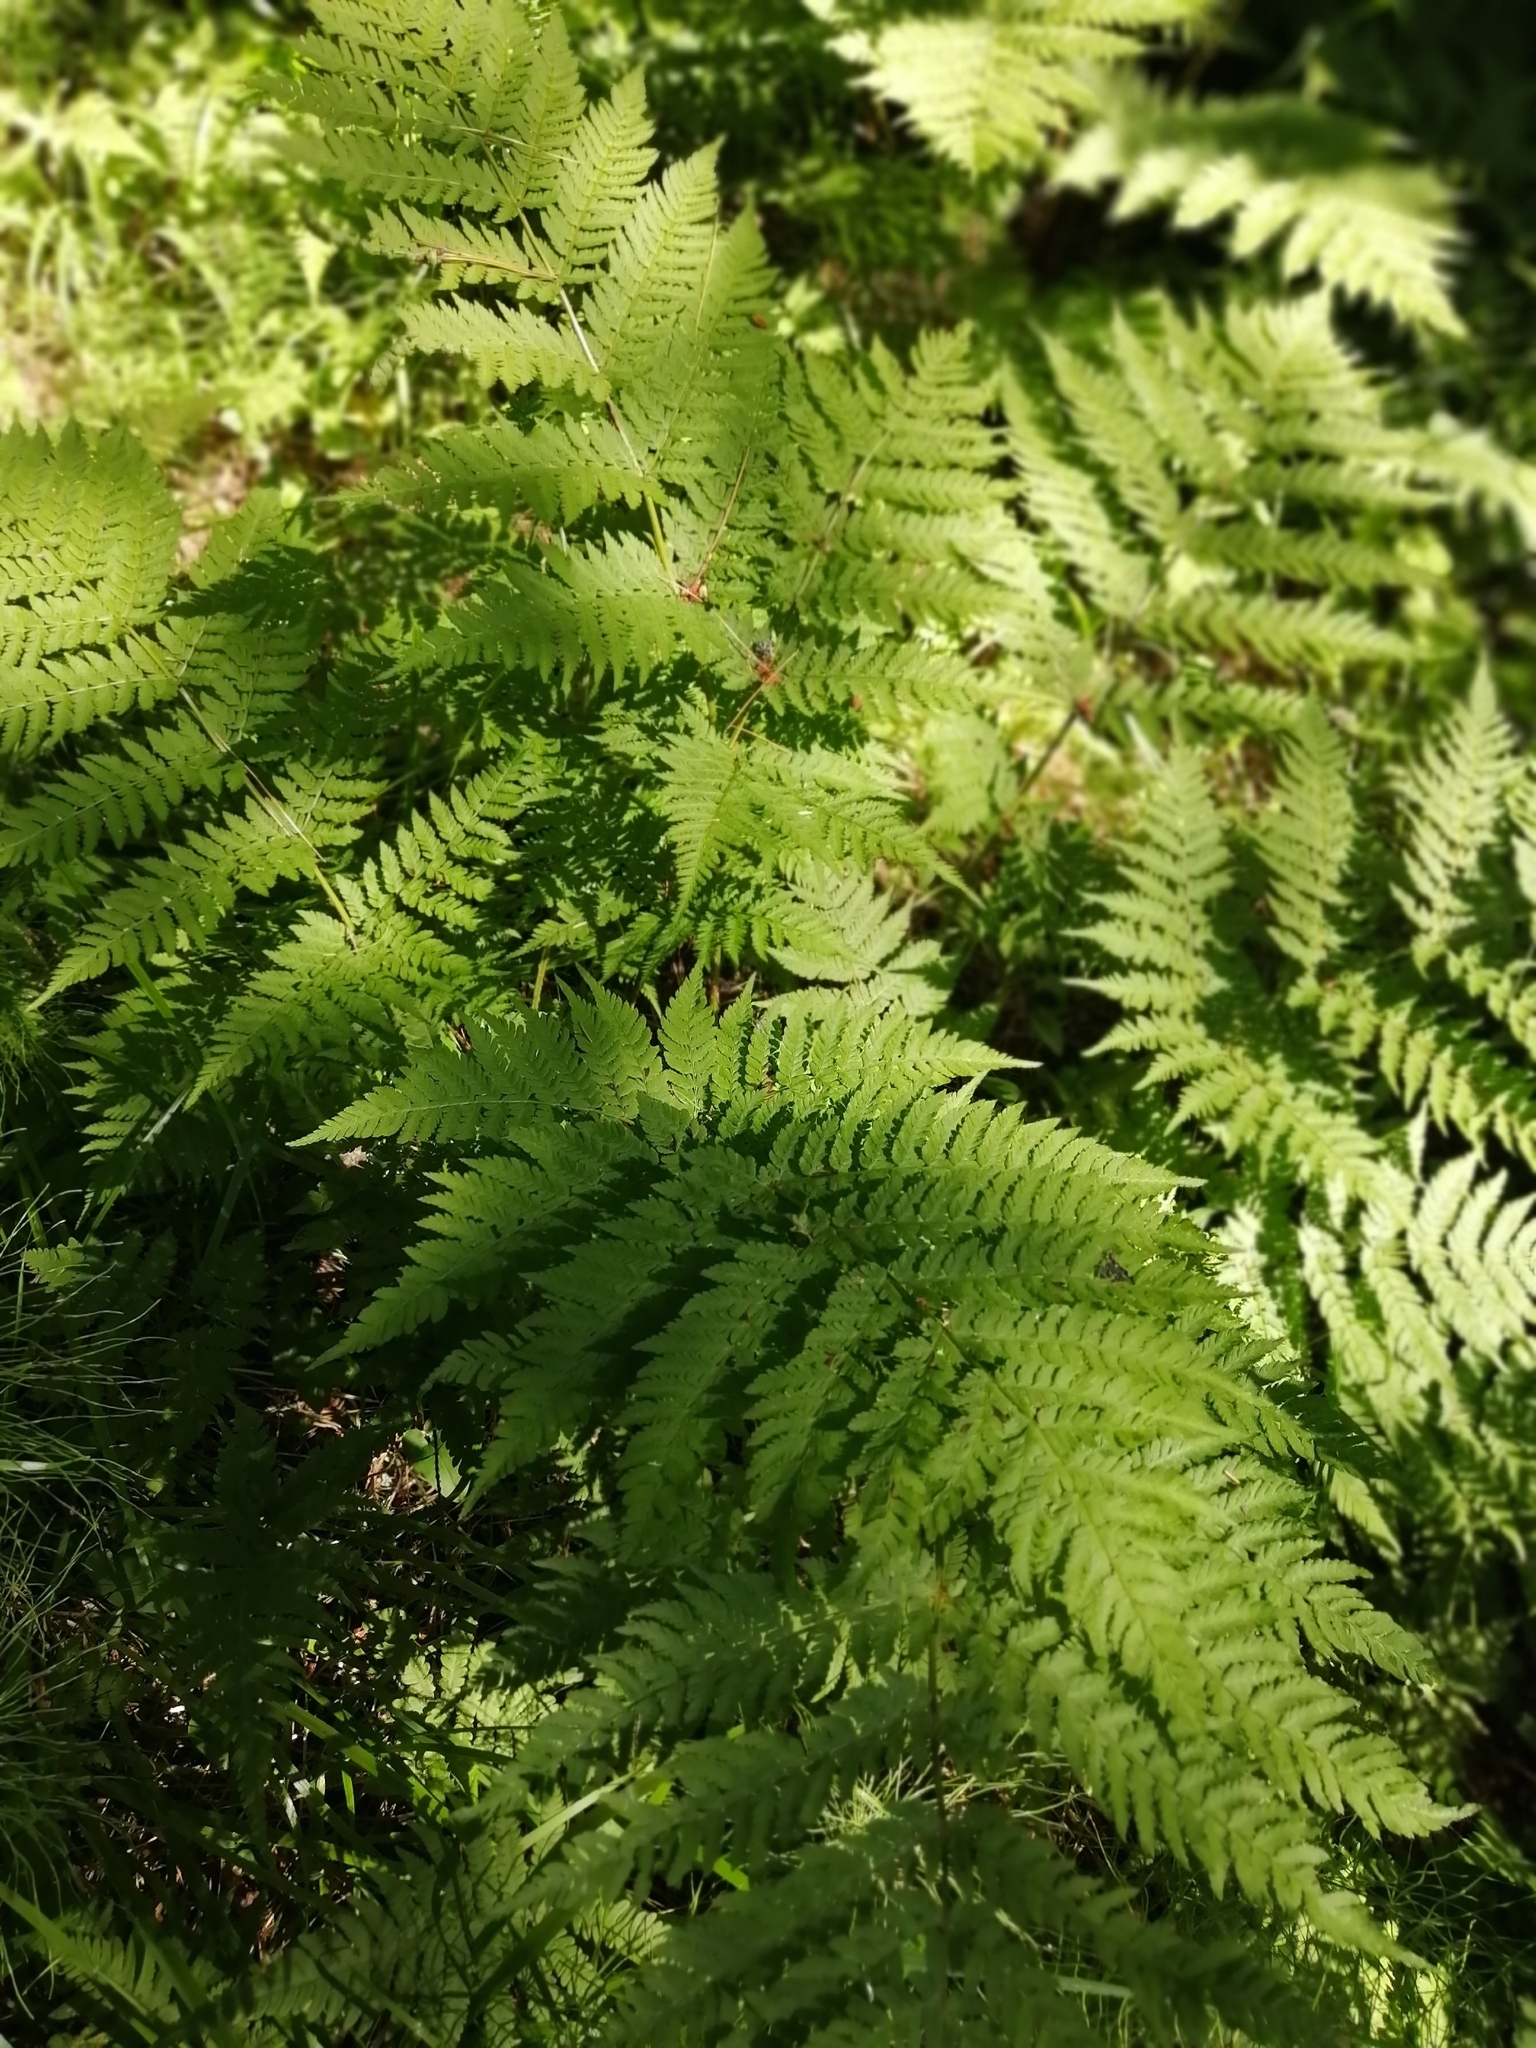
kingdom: Plantae
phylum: Tracheophyta
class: Polypodiopsida
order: Polypodiales
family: Dryopteridaceae
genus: Dryopteris
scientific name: Dryopteris expansa
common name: Northern buckler fern
